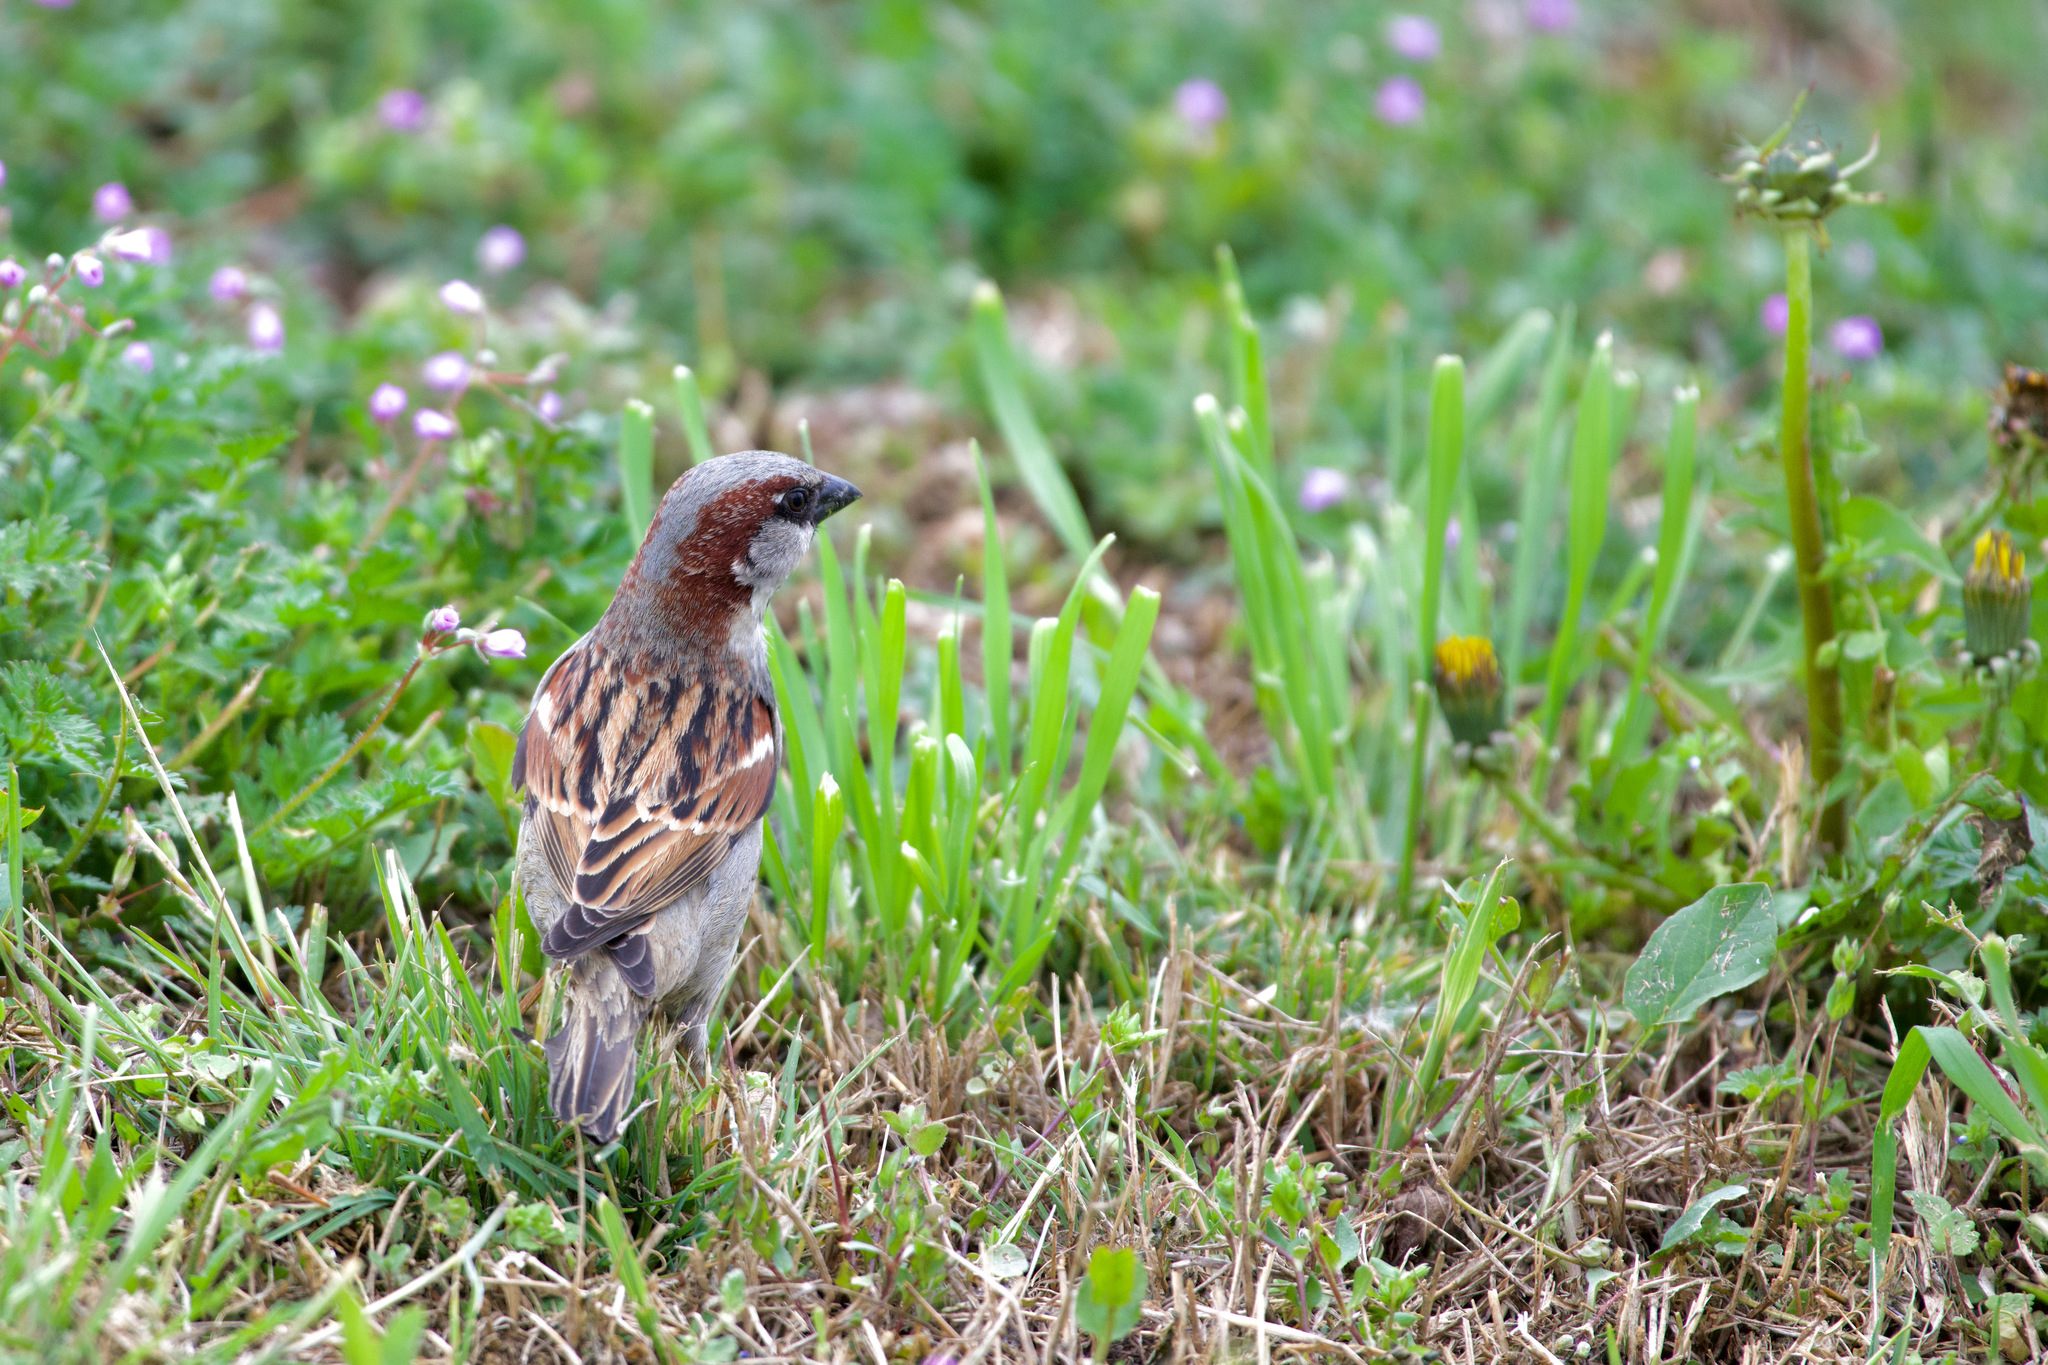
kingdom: Animalia
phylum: Chordata
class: Aves
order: Passeriformes
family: Passeridae
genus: Passer
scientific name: Passer domesticus
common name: House sparrow
